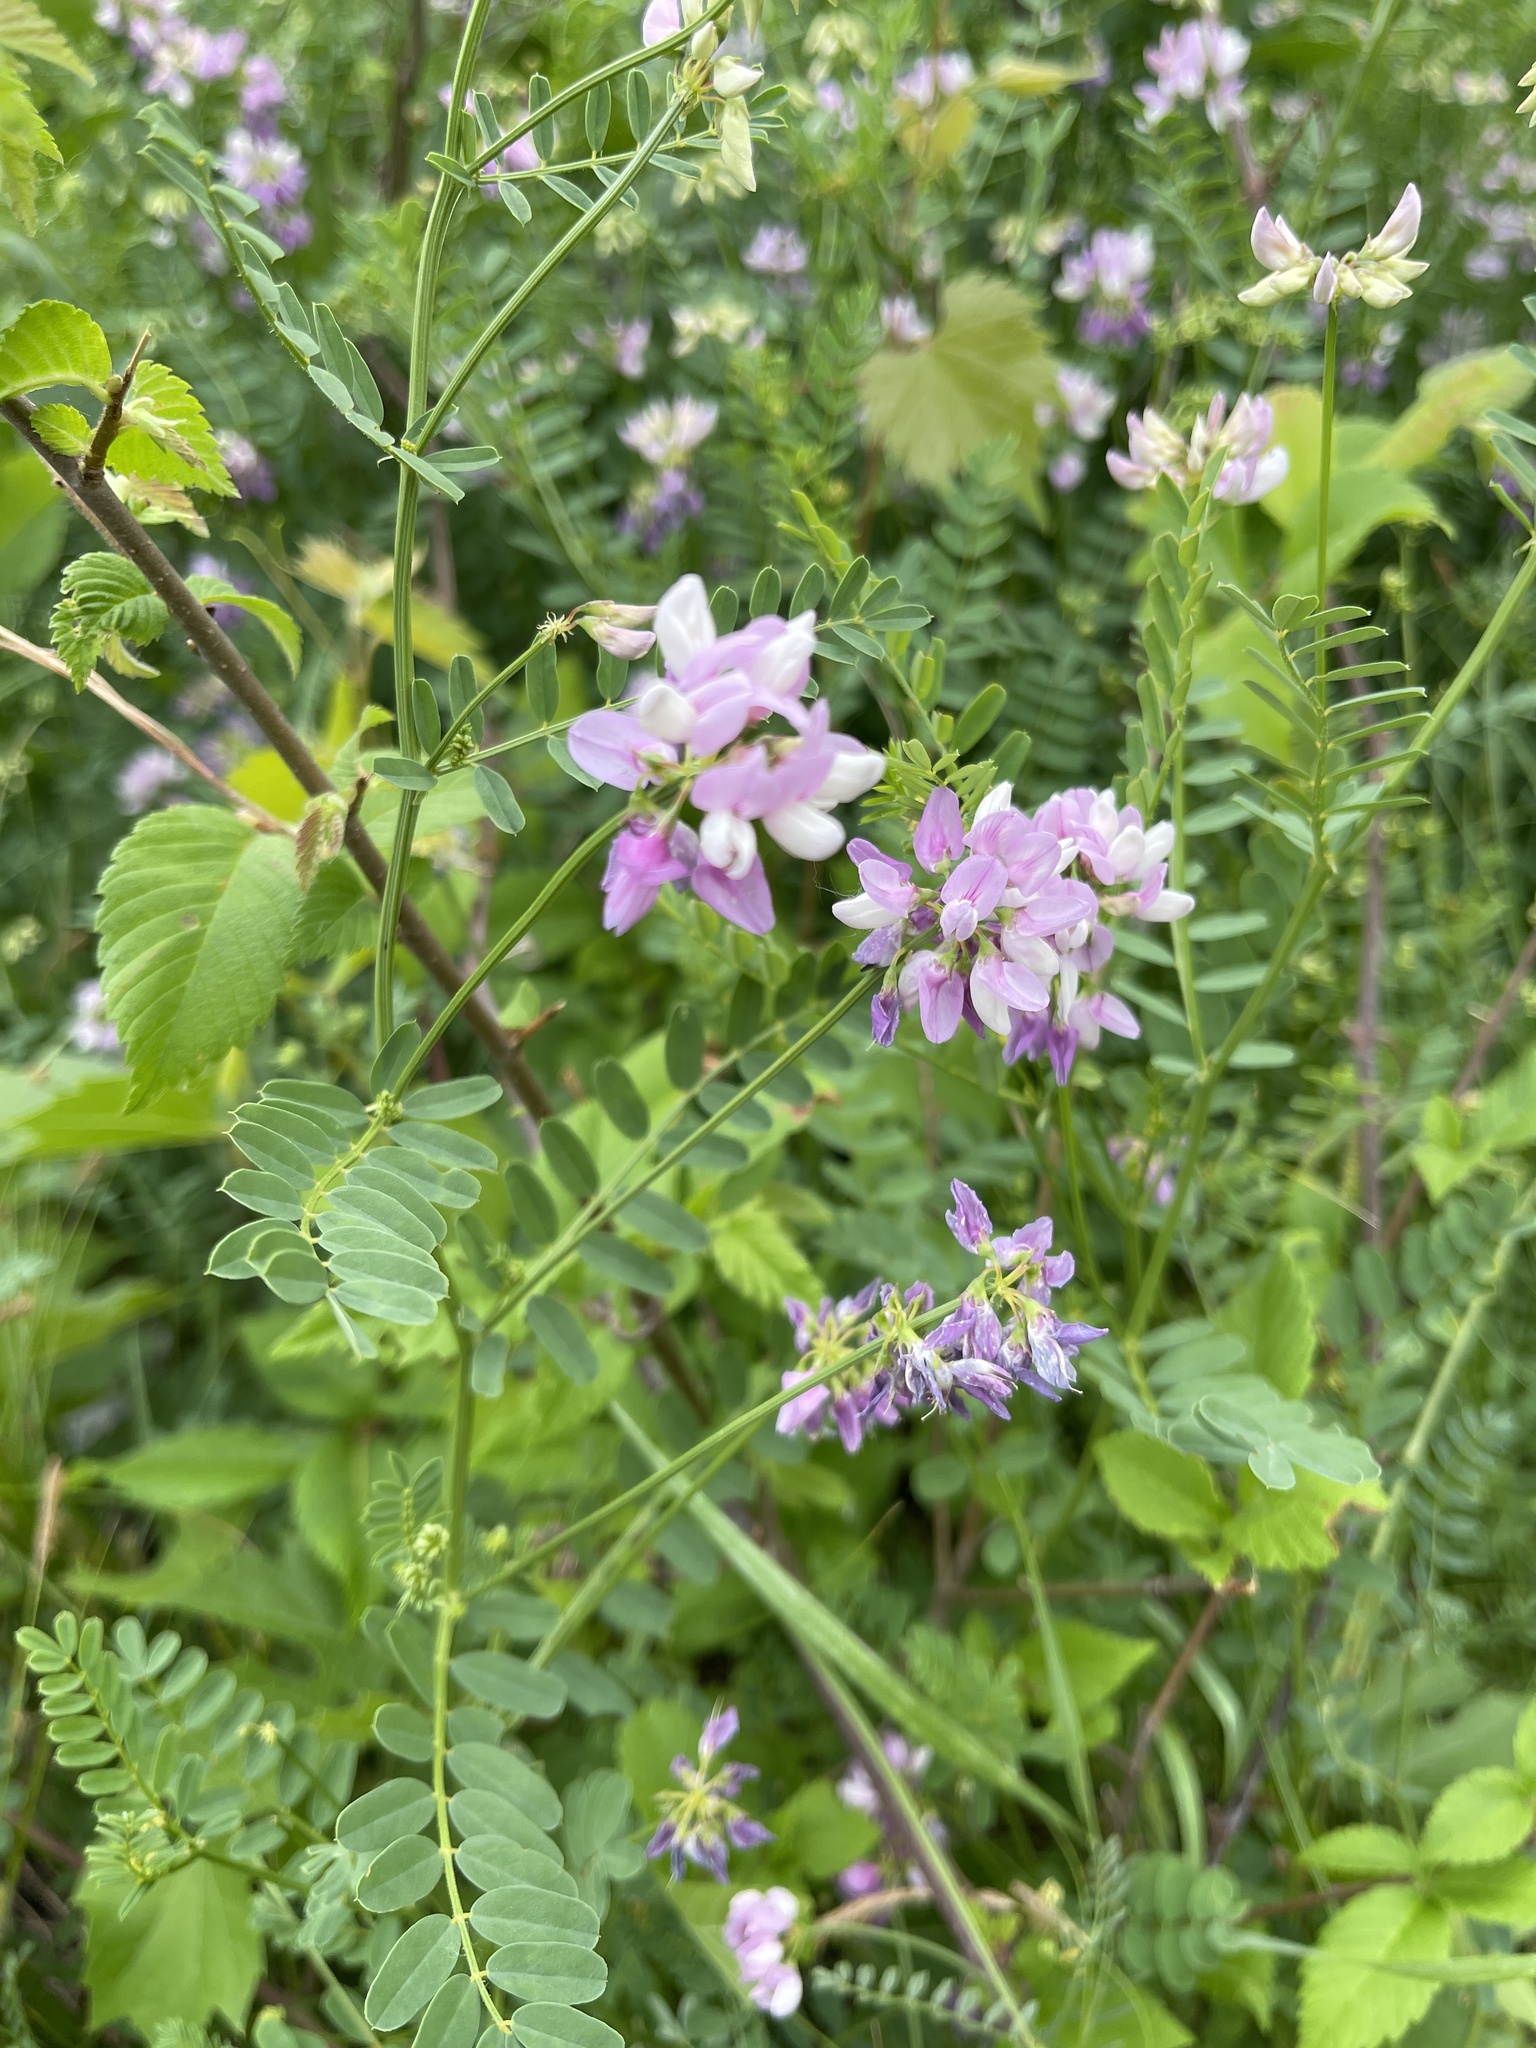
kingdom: Plantae
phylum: Tracheophyta
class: Magnoliopsida
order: Fabales
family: Fabaceae
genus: Coronilla
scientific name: Coronilla varia
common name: Crownvetch
